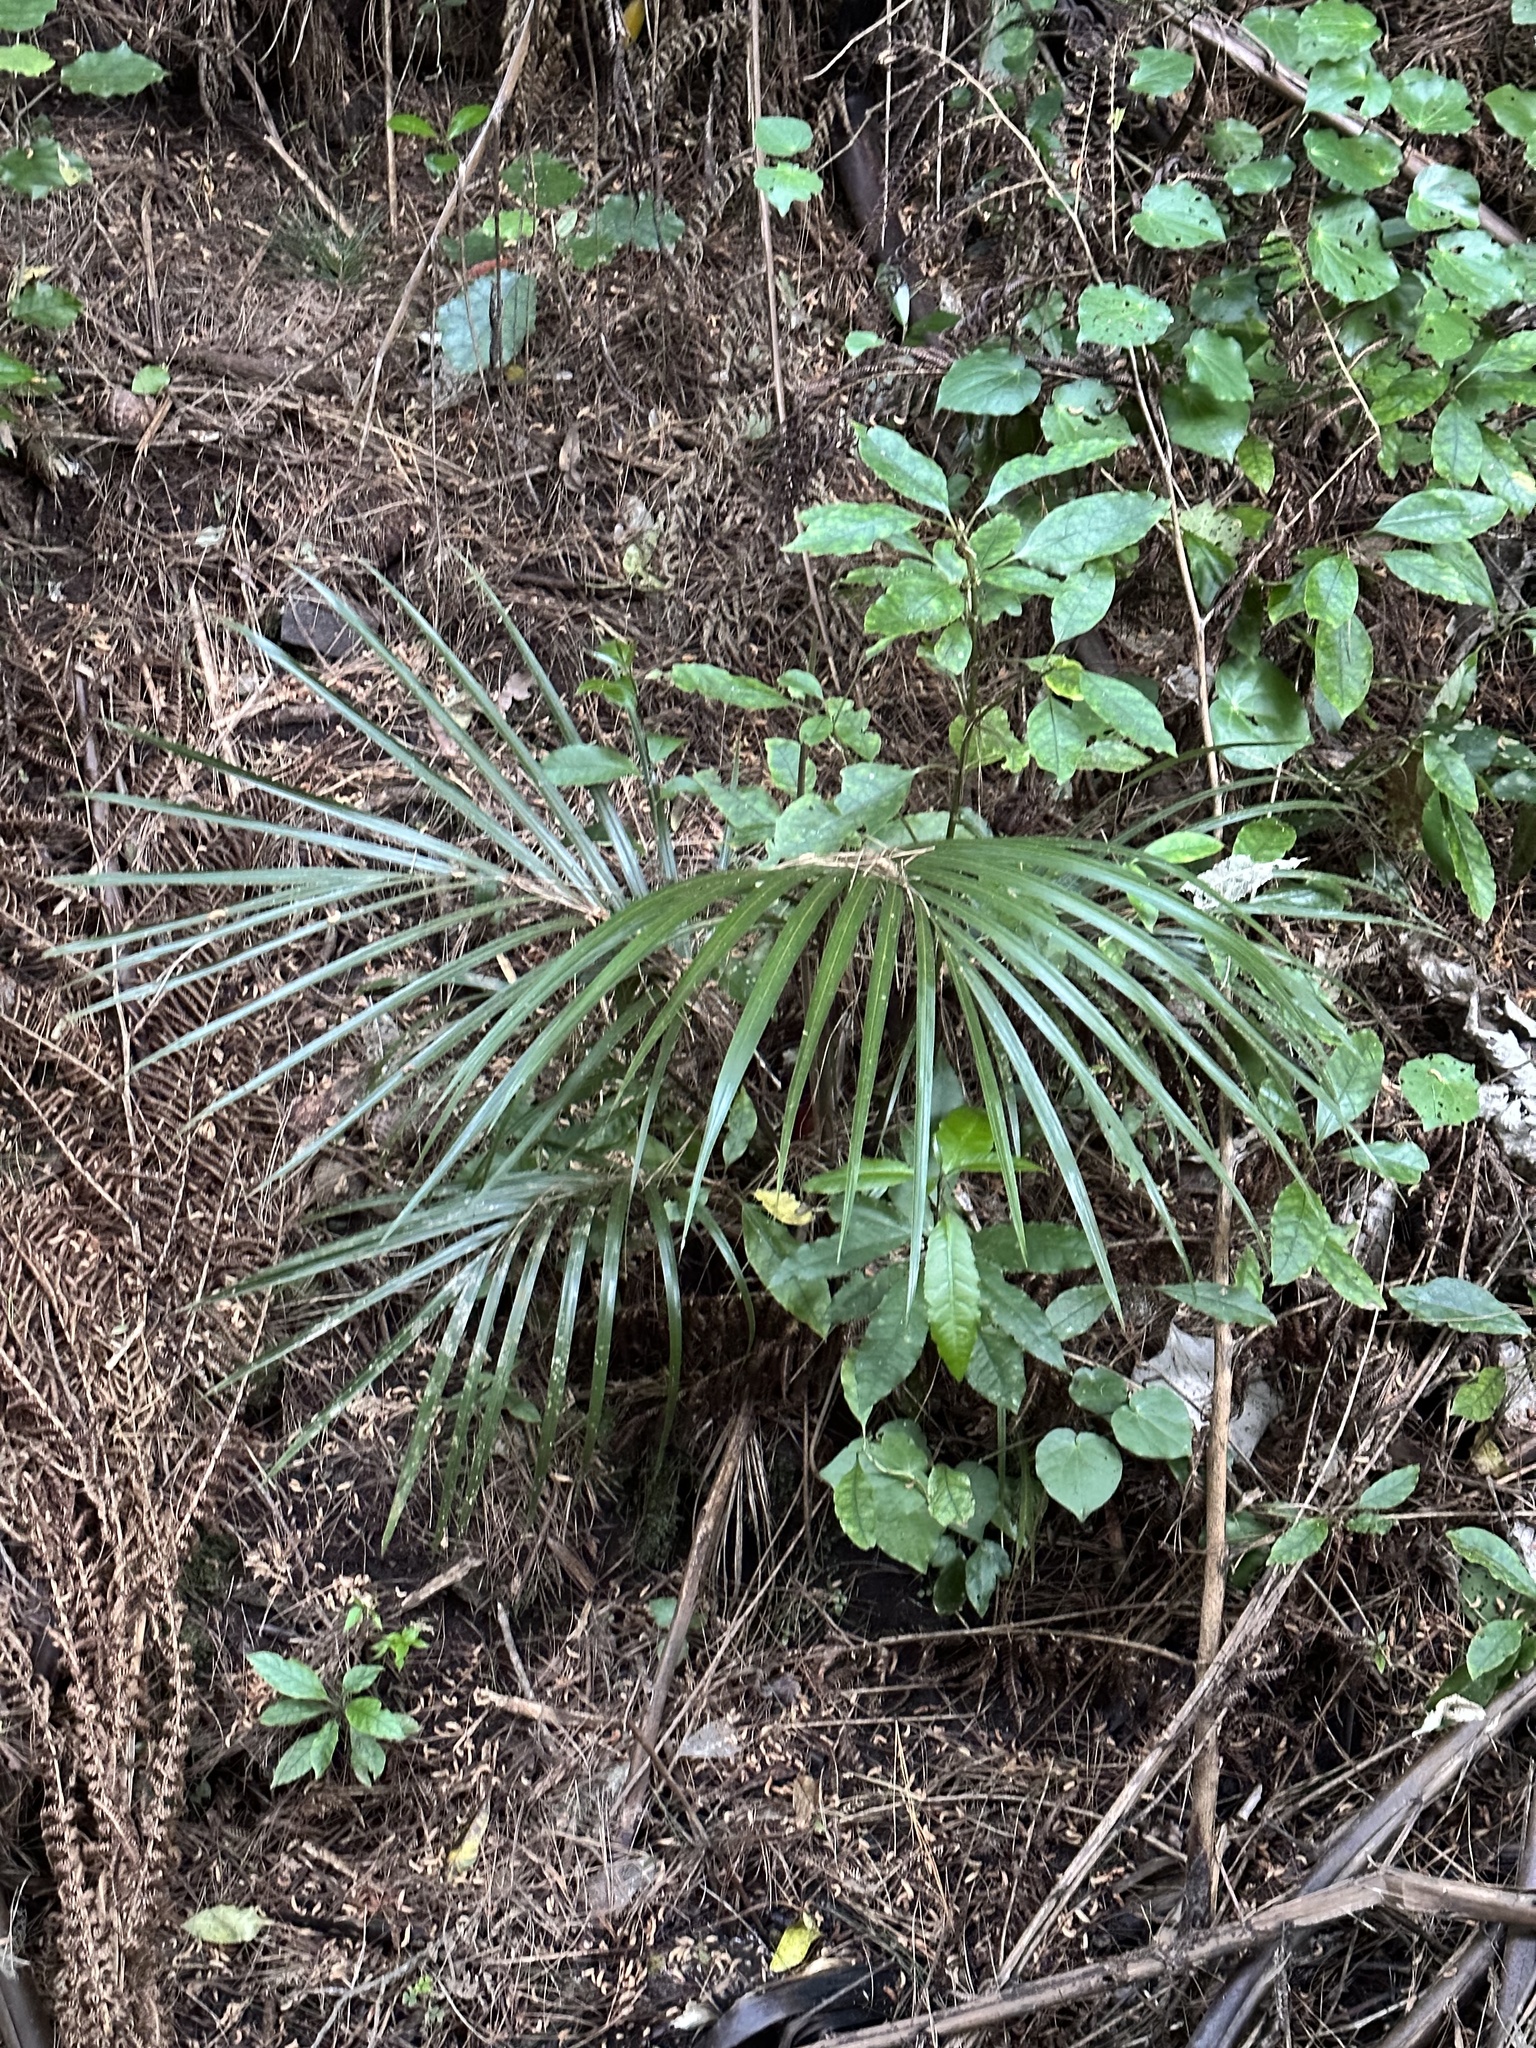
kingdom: Plantae
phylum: Tracheophyta
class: Liliopsida
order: Arecales
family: Arecaceae
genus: Rhopalostylis
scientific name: Rhopalostylis sapida
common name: Feather-duster palm
